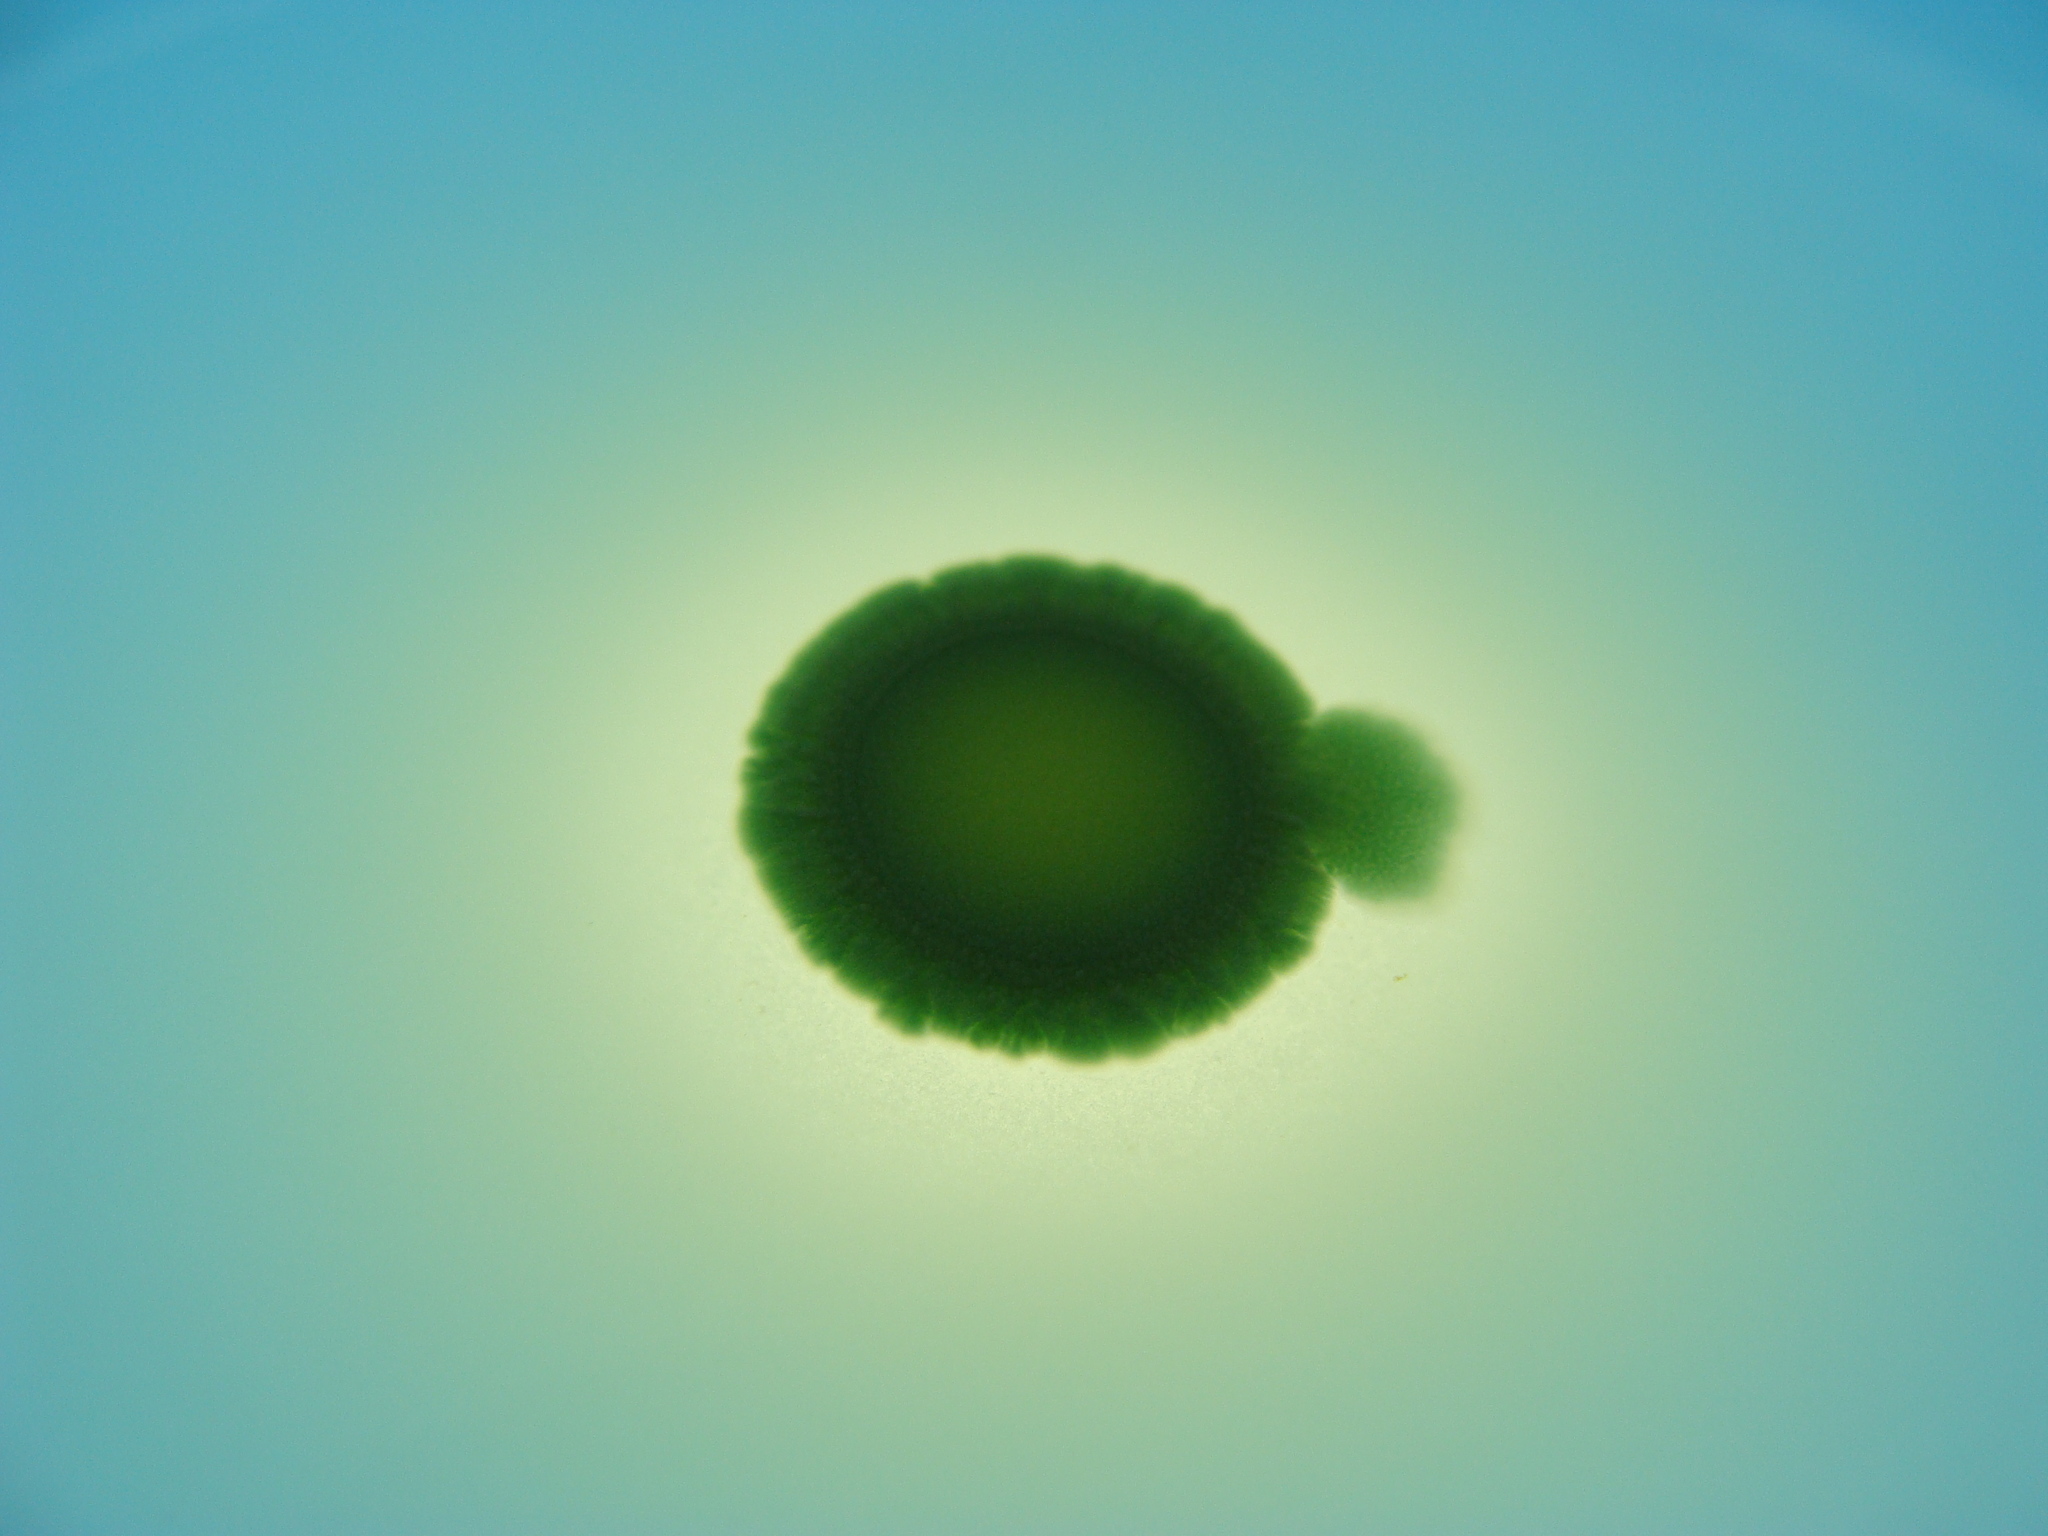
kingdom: Bacteria
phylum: Proteobacteria
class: Gammaproteobacteria
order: Burkholderiales
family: Burkholderiaceae
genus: Burkholderia
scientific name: Burkholderia cepacia
